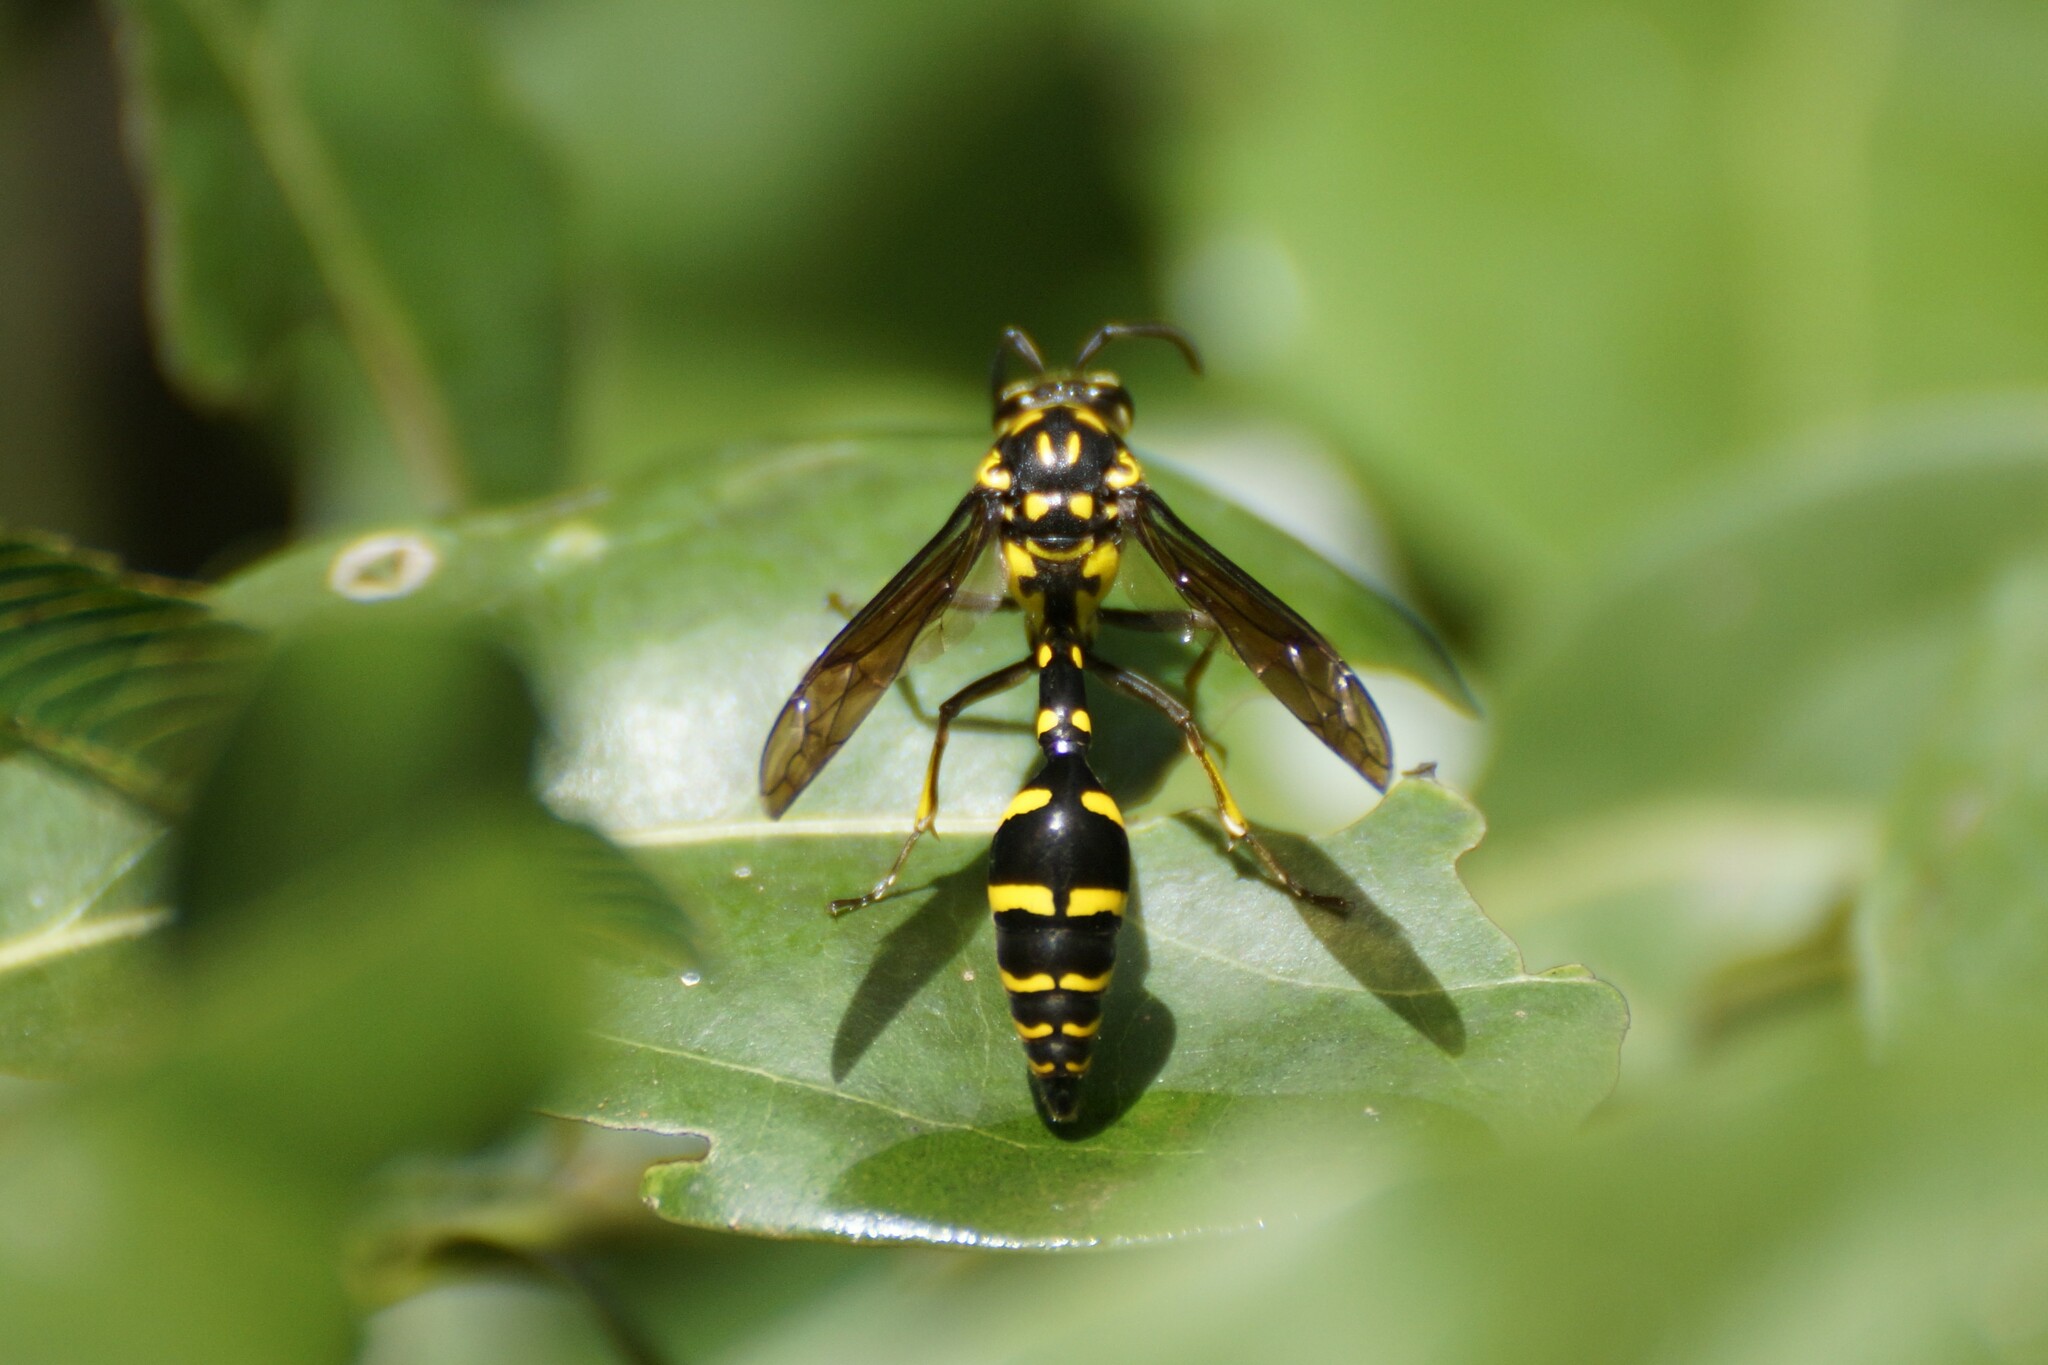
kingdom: Animalia
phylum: Arthropoda
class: Insecta
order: Hymenoptera
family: Eumenidae
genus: Phimenes
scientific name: Phimenes arcuatus
